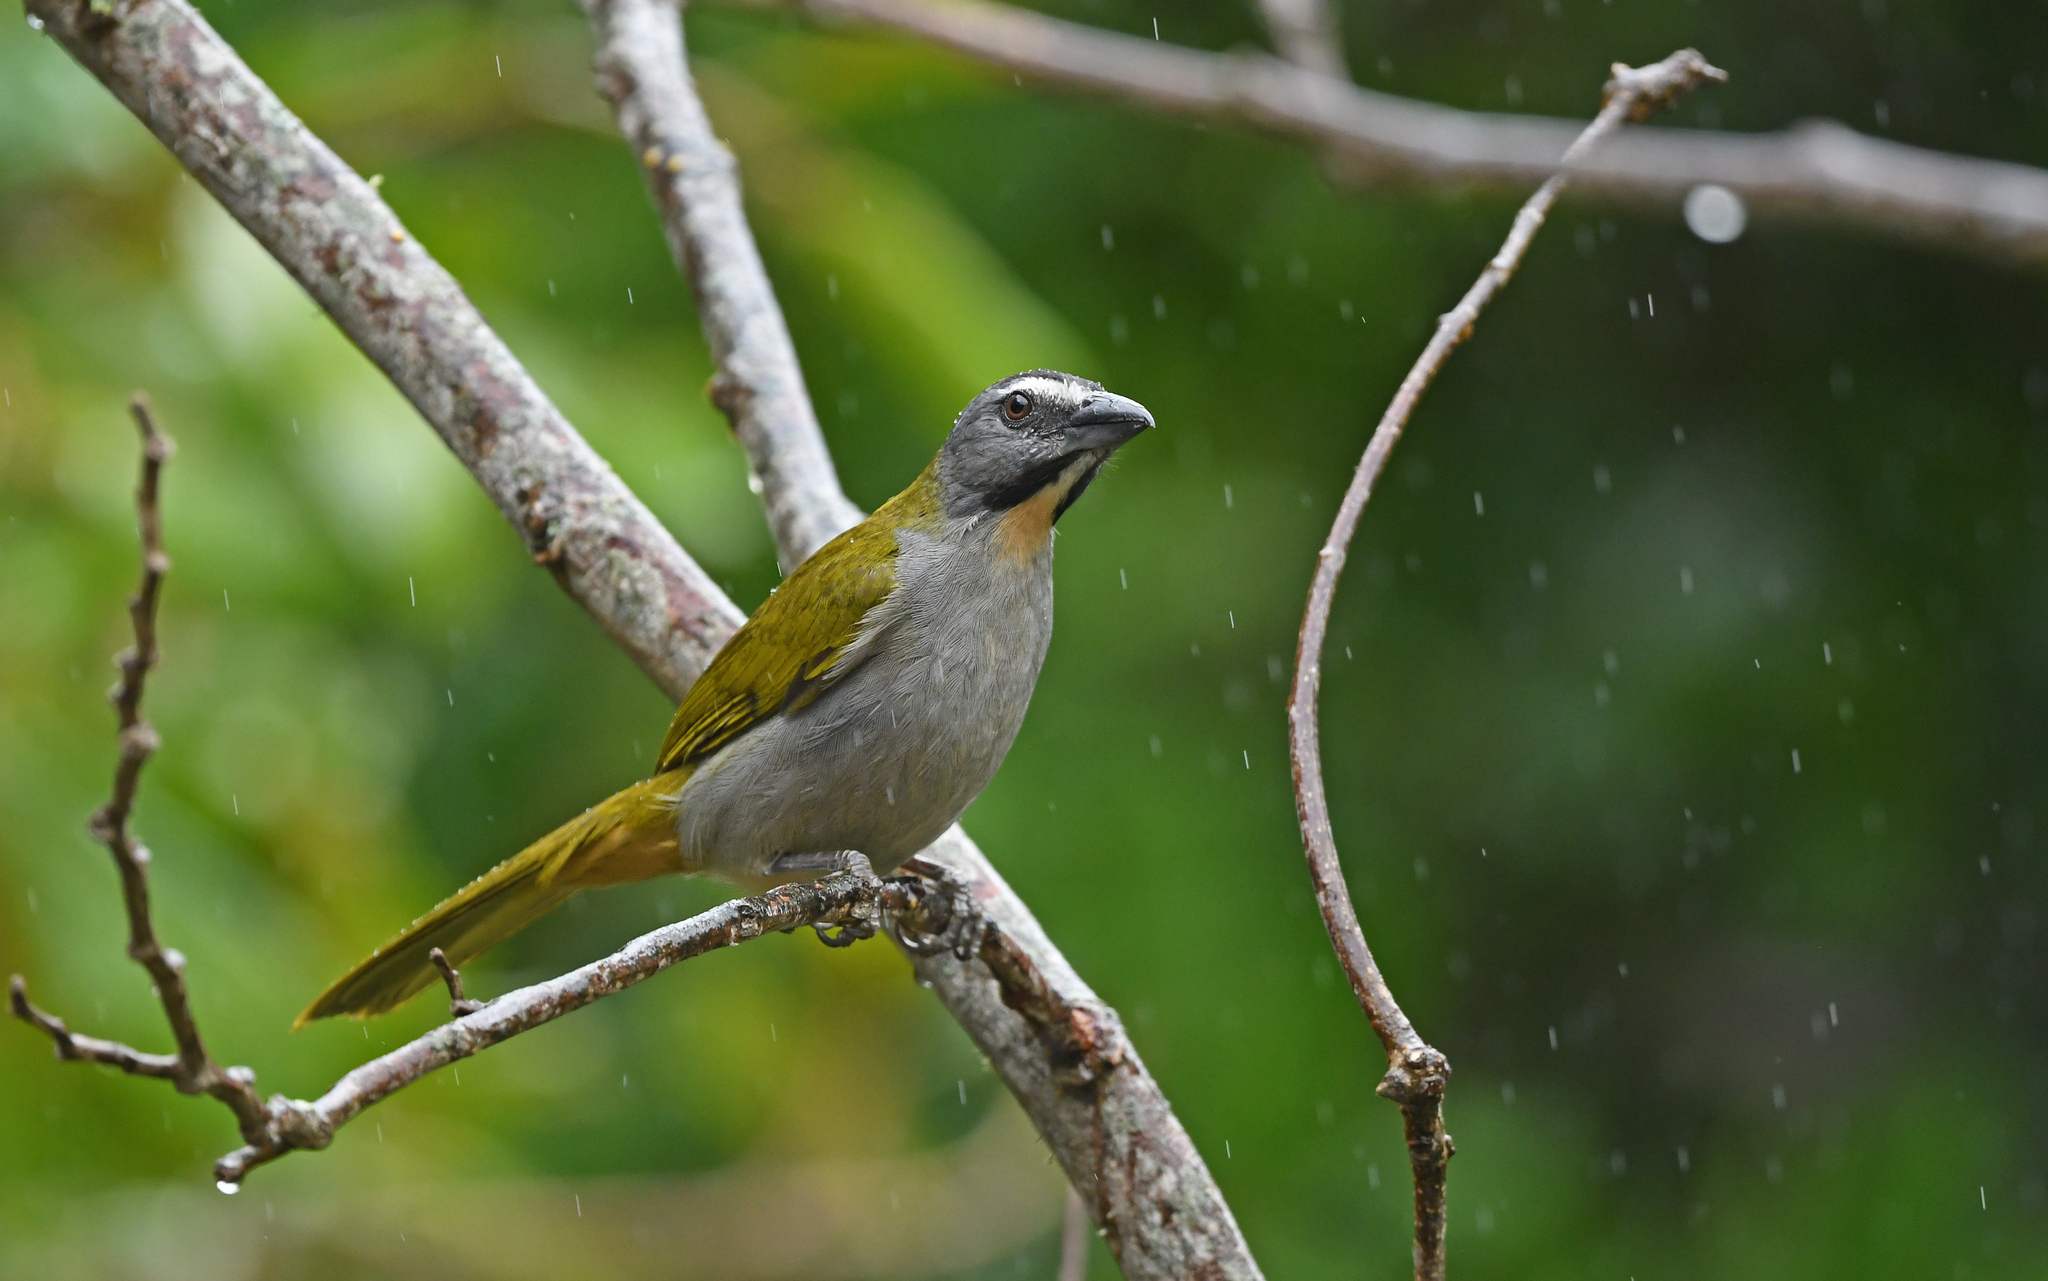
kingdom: Animalia
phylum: Chordata
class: Aves
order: Passeriformes
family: Thraupidae
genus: Saltator
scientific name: Saltator maximus
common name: Buff-throated saltator
